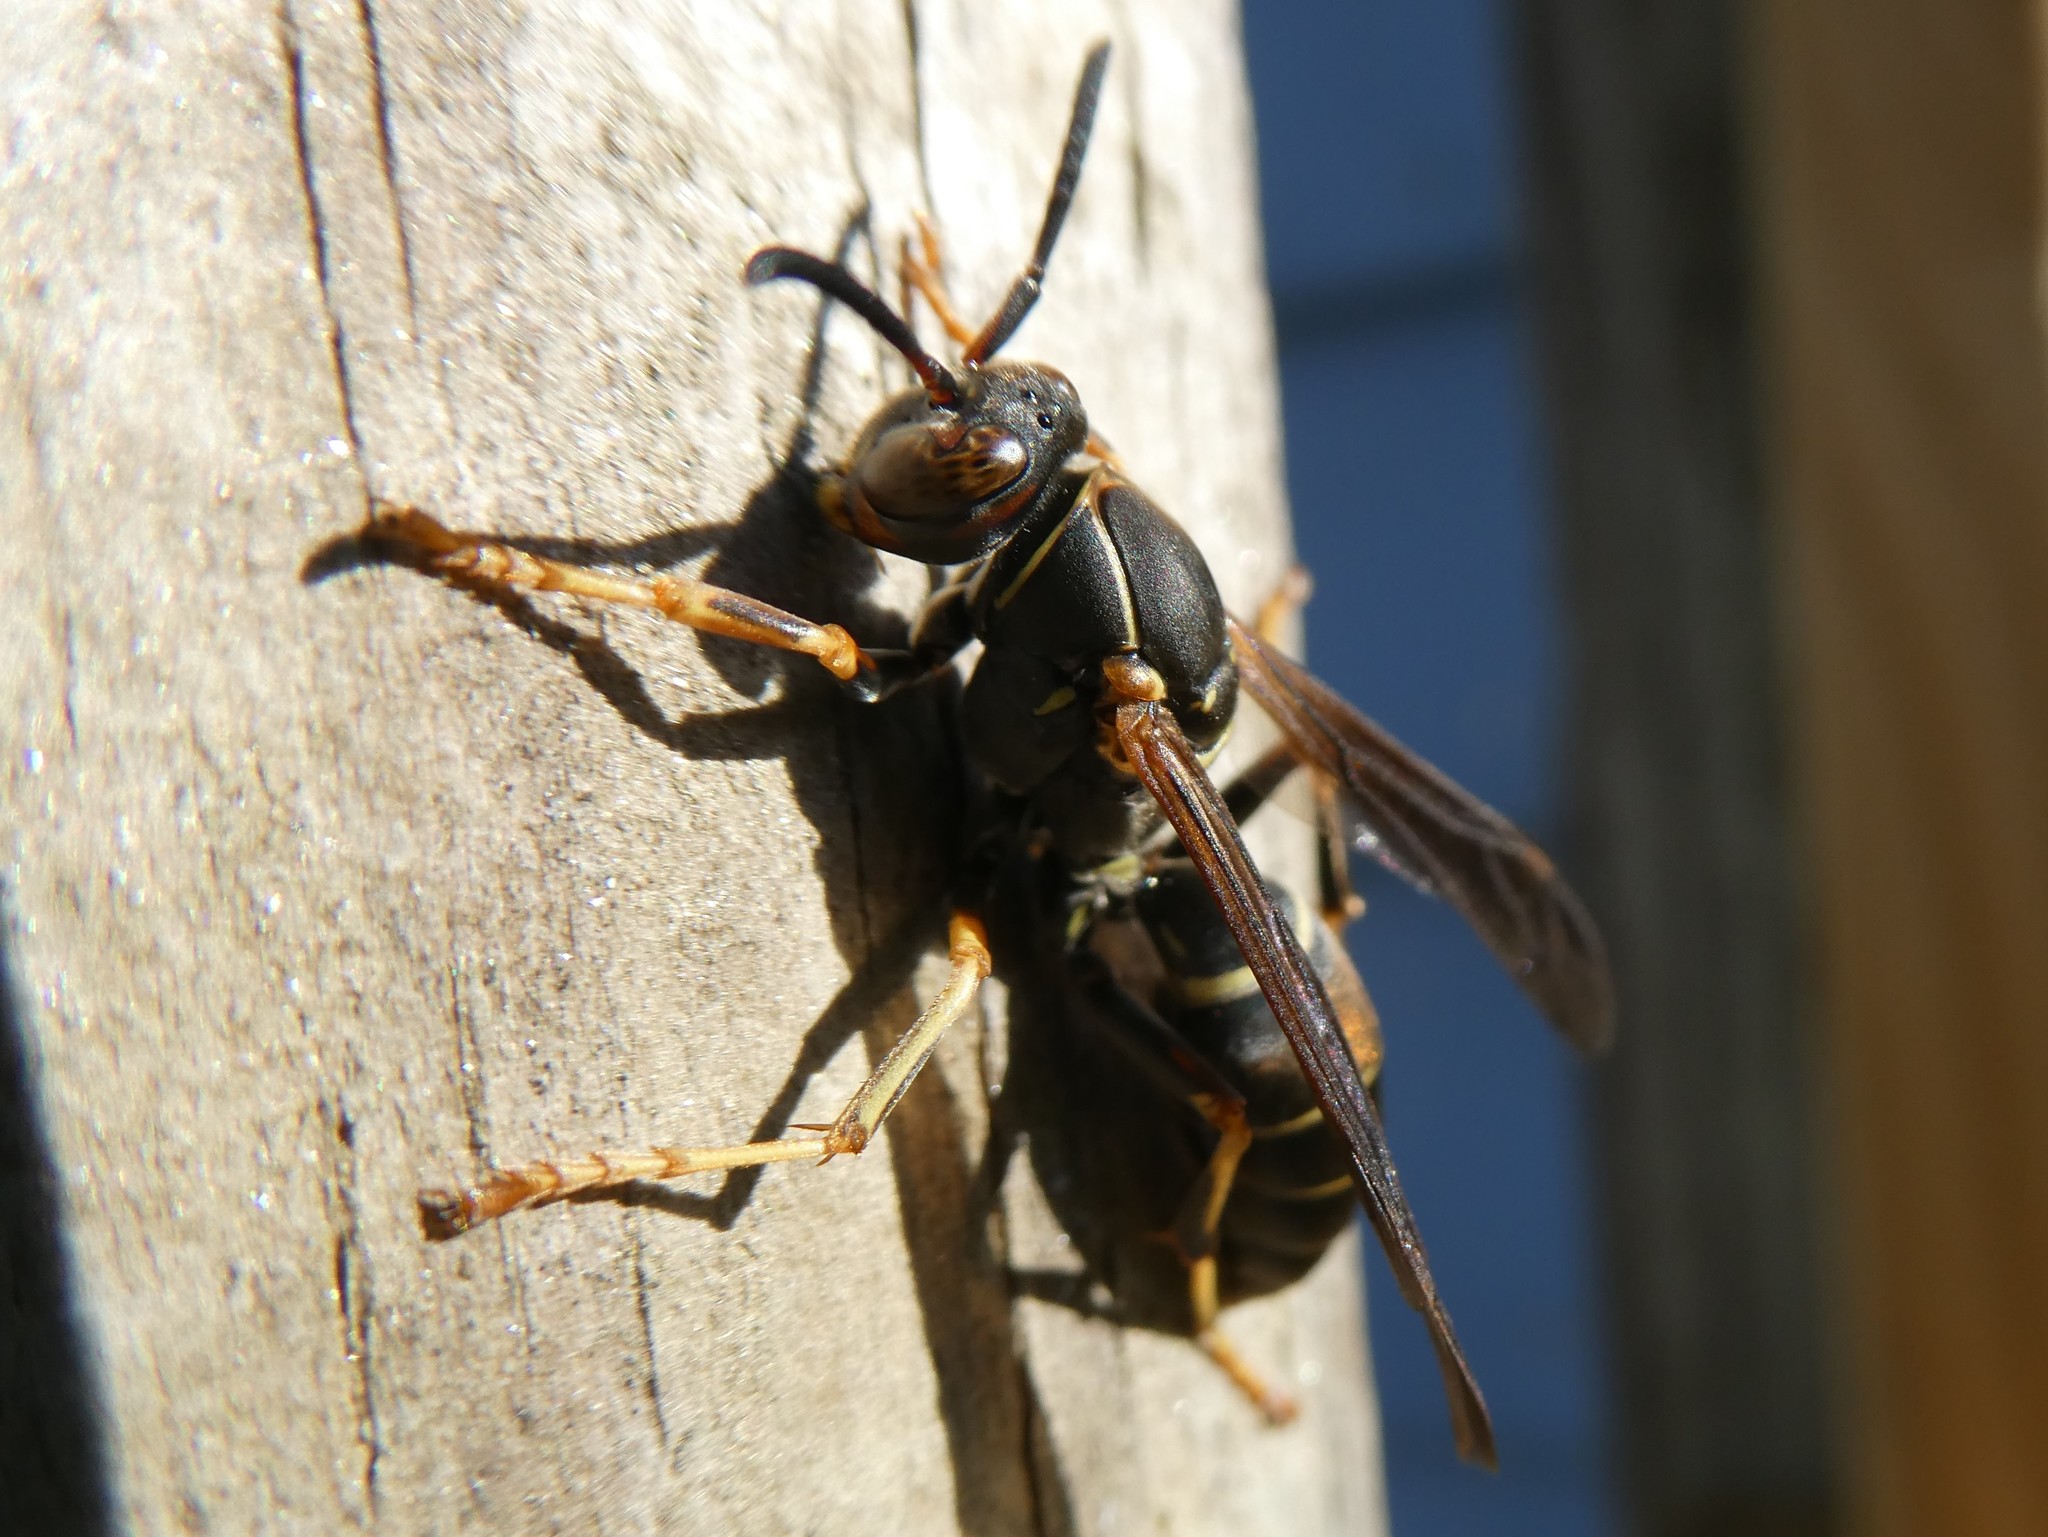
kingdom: Animalia
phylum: Arthropoda
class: Insecta
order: Hymenoptera
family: Eumenidae
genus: Polistes
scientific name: Polistes fuscatus
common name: Dark paper wasp
